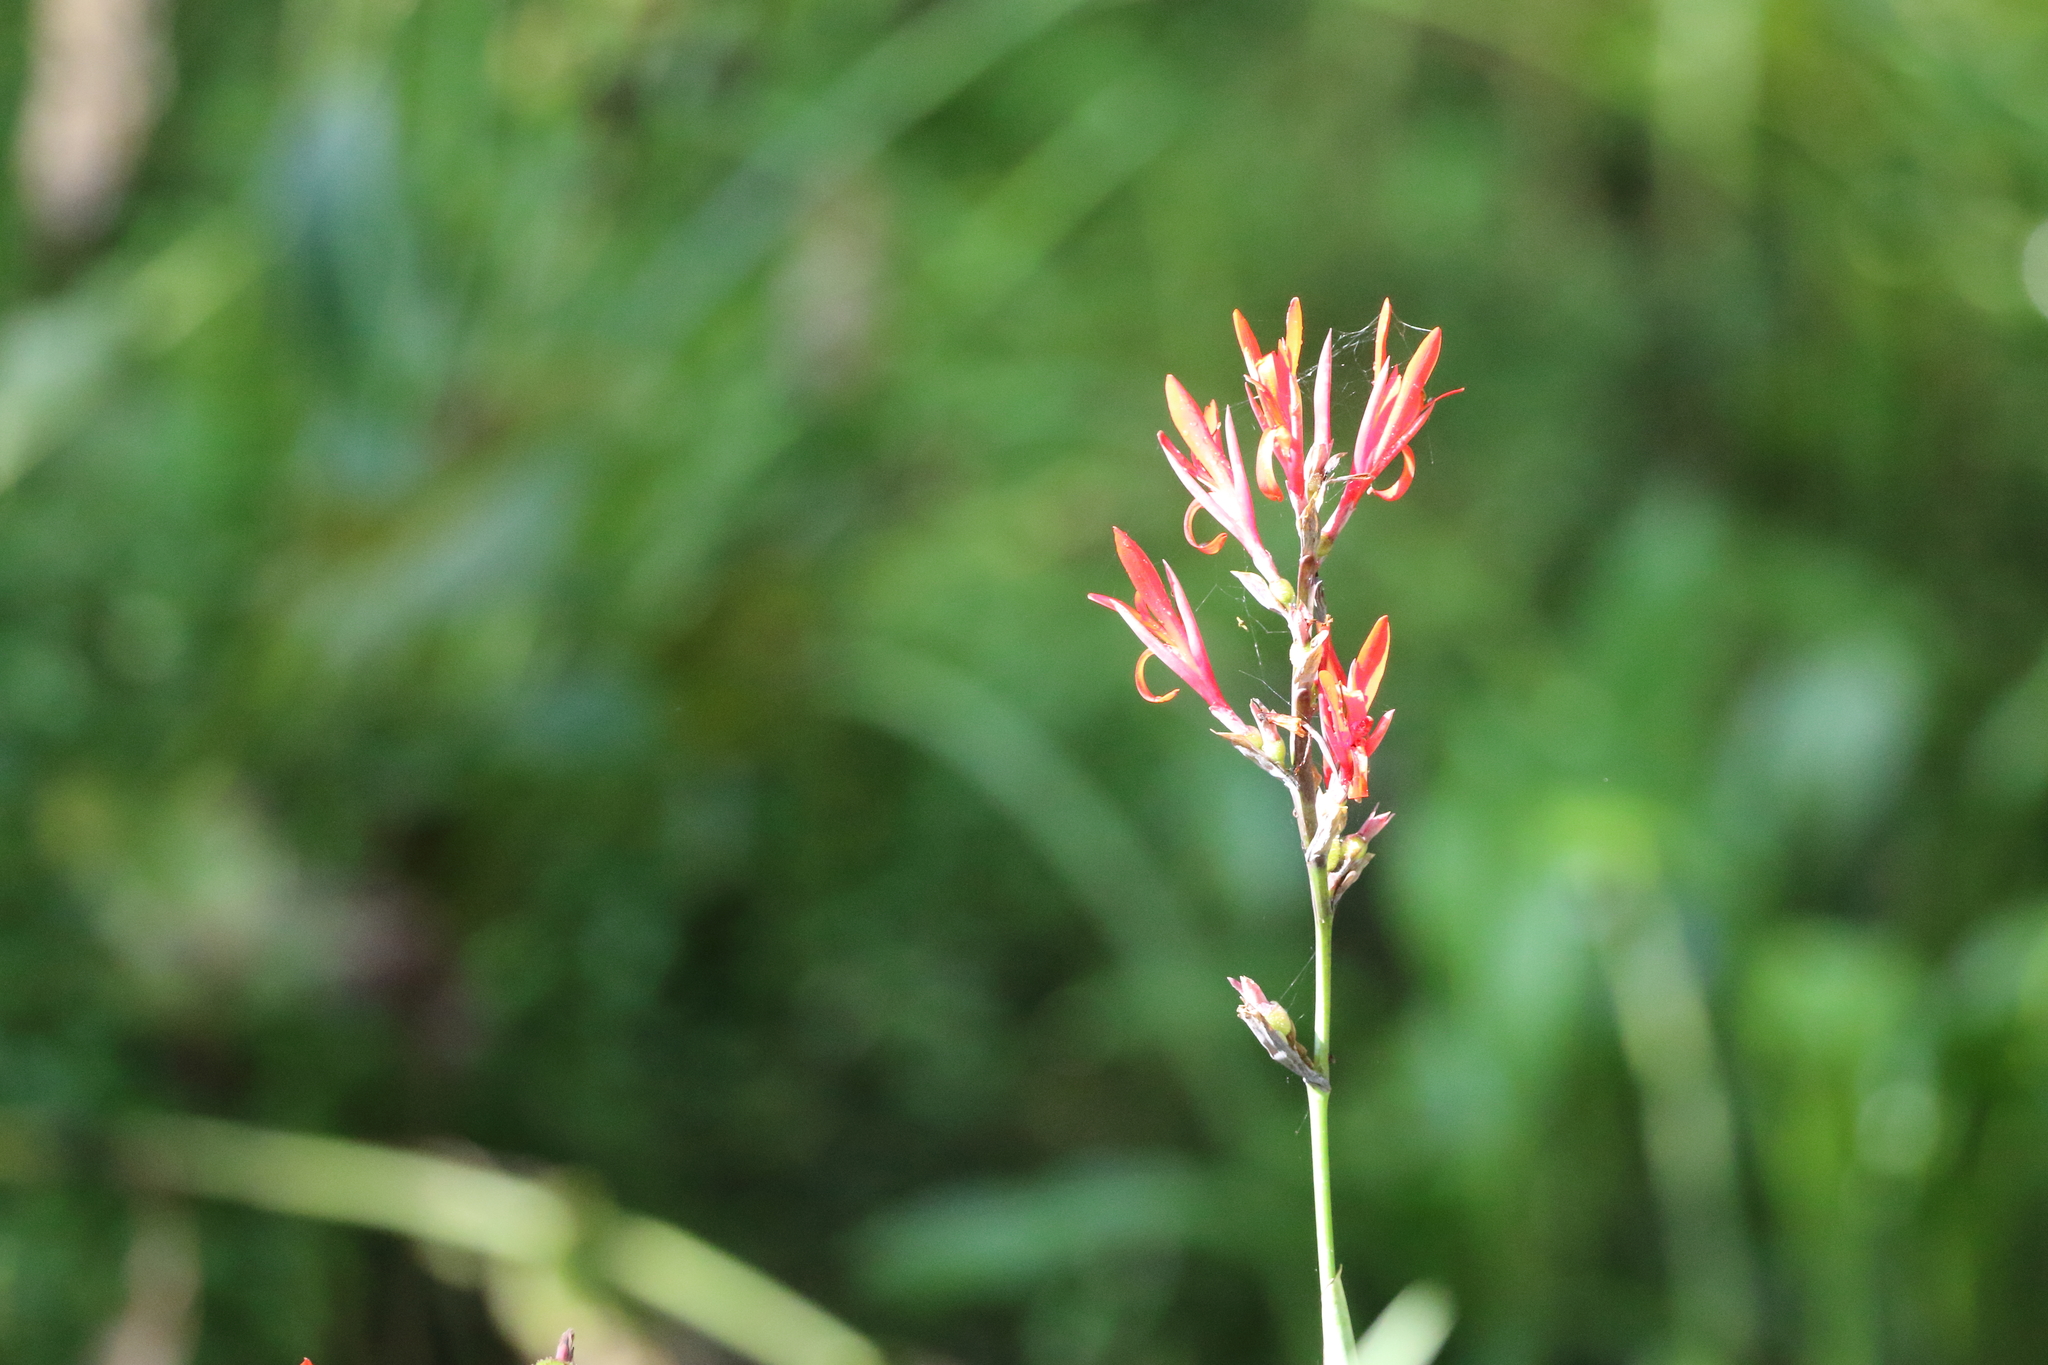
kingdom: Plantae
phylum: Tracheophyta
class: Liliopsida
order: Zingiberales
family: Cannaceae
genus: Canna
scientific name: Canna indica
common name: Indian shot
